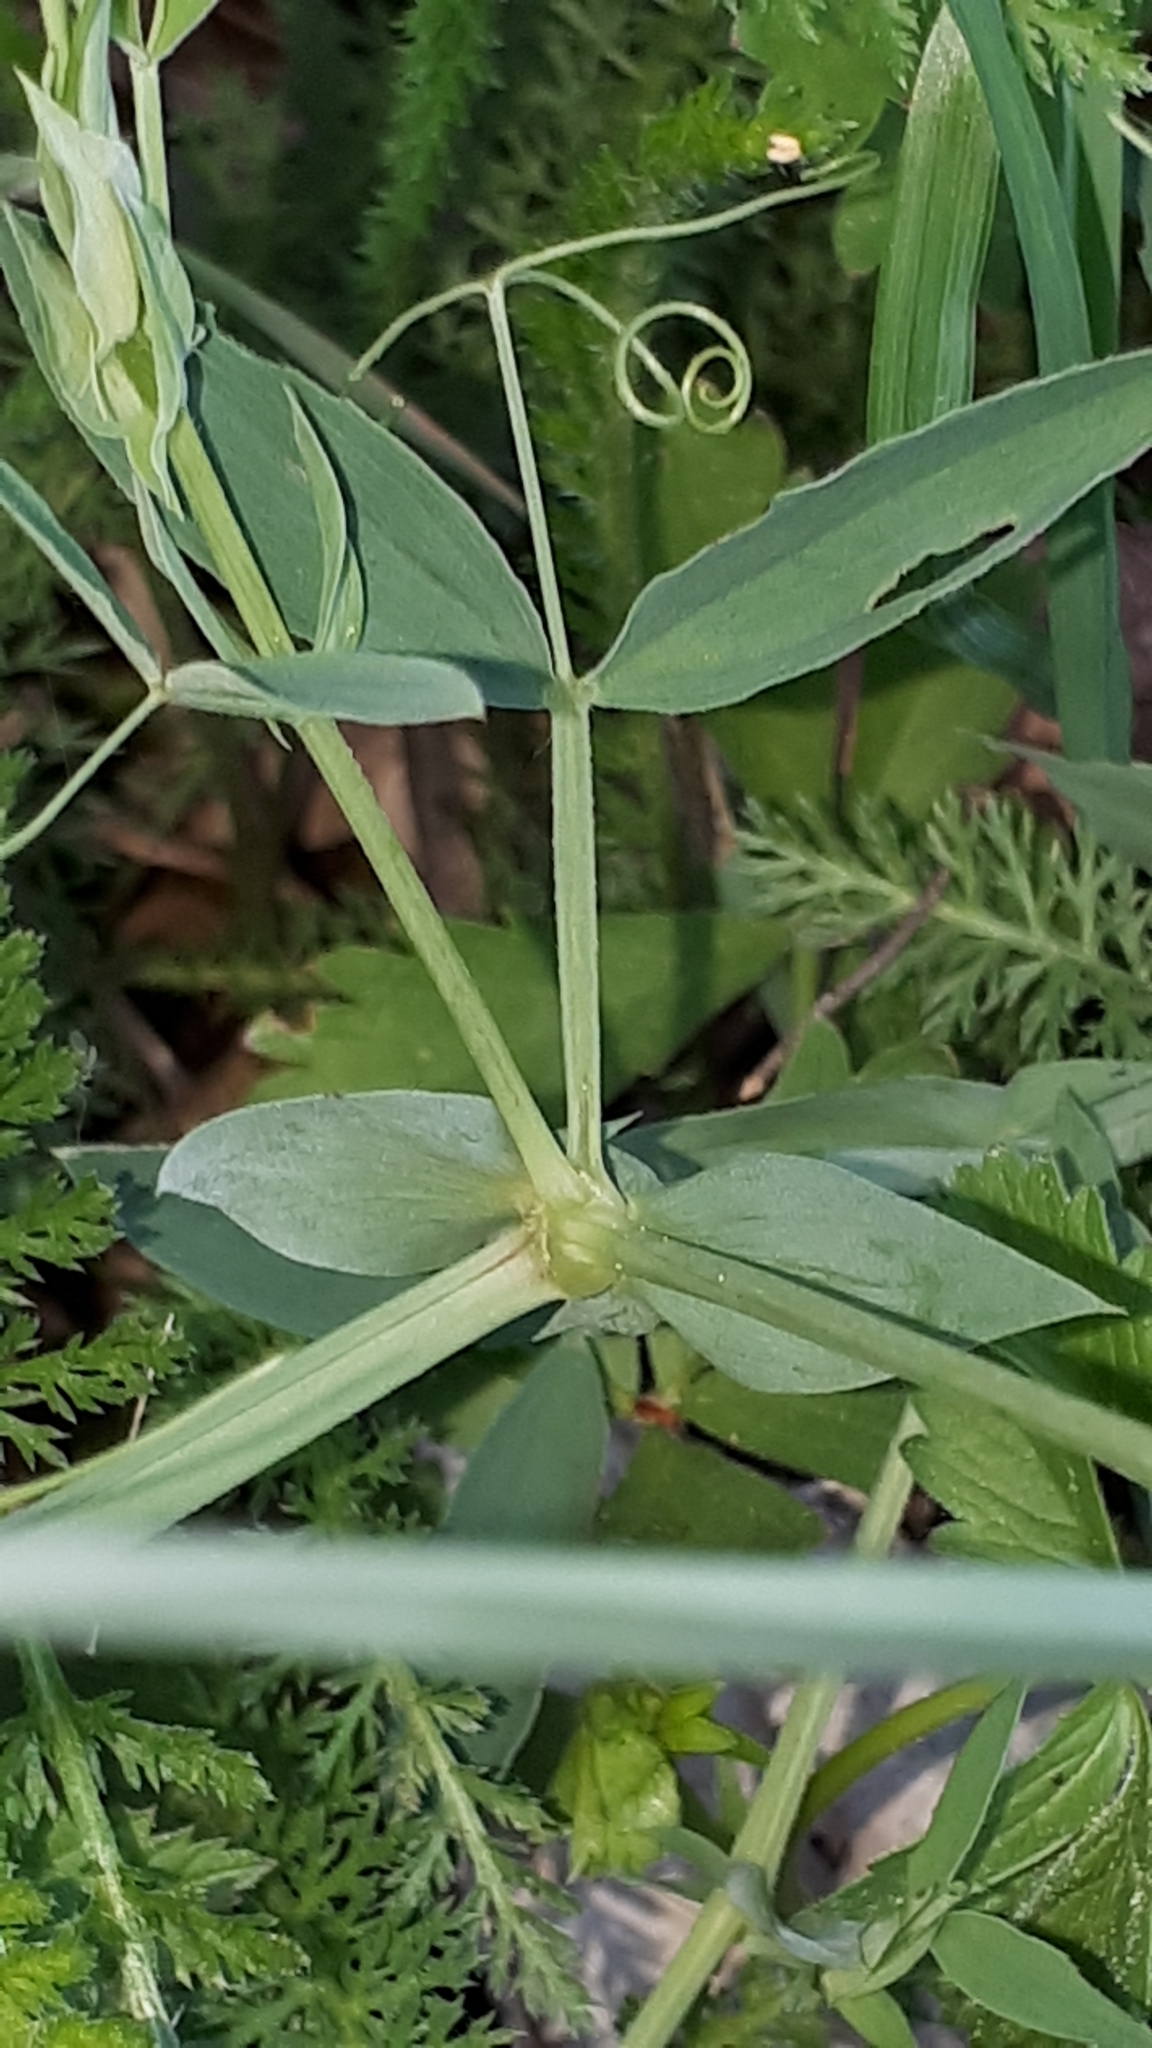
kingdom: Plantae
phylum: Tracheophyta
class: Magnoliopsida
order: Fabales
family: Fabaceae
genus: Lathyrus
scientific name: Lathyrus pratensis
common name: Meadow vetchling
